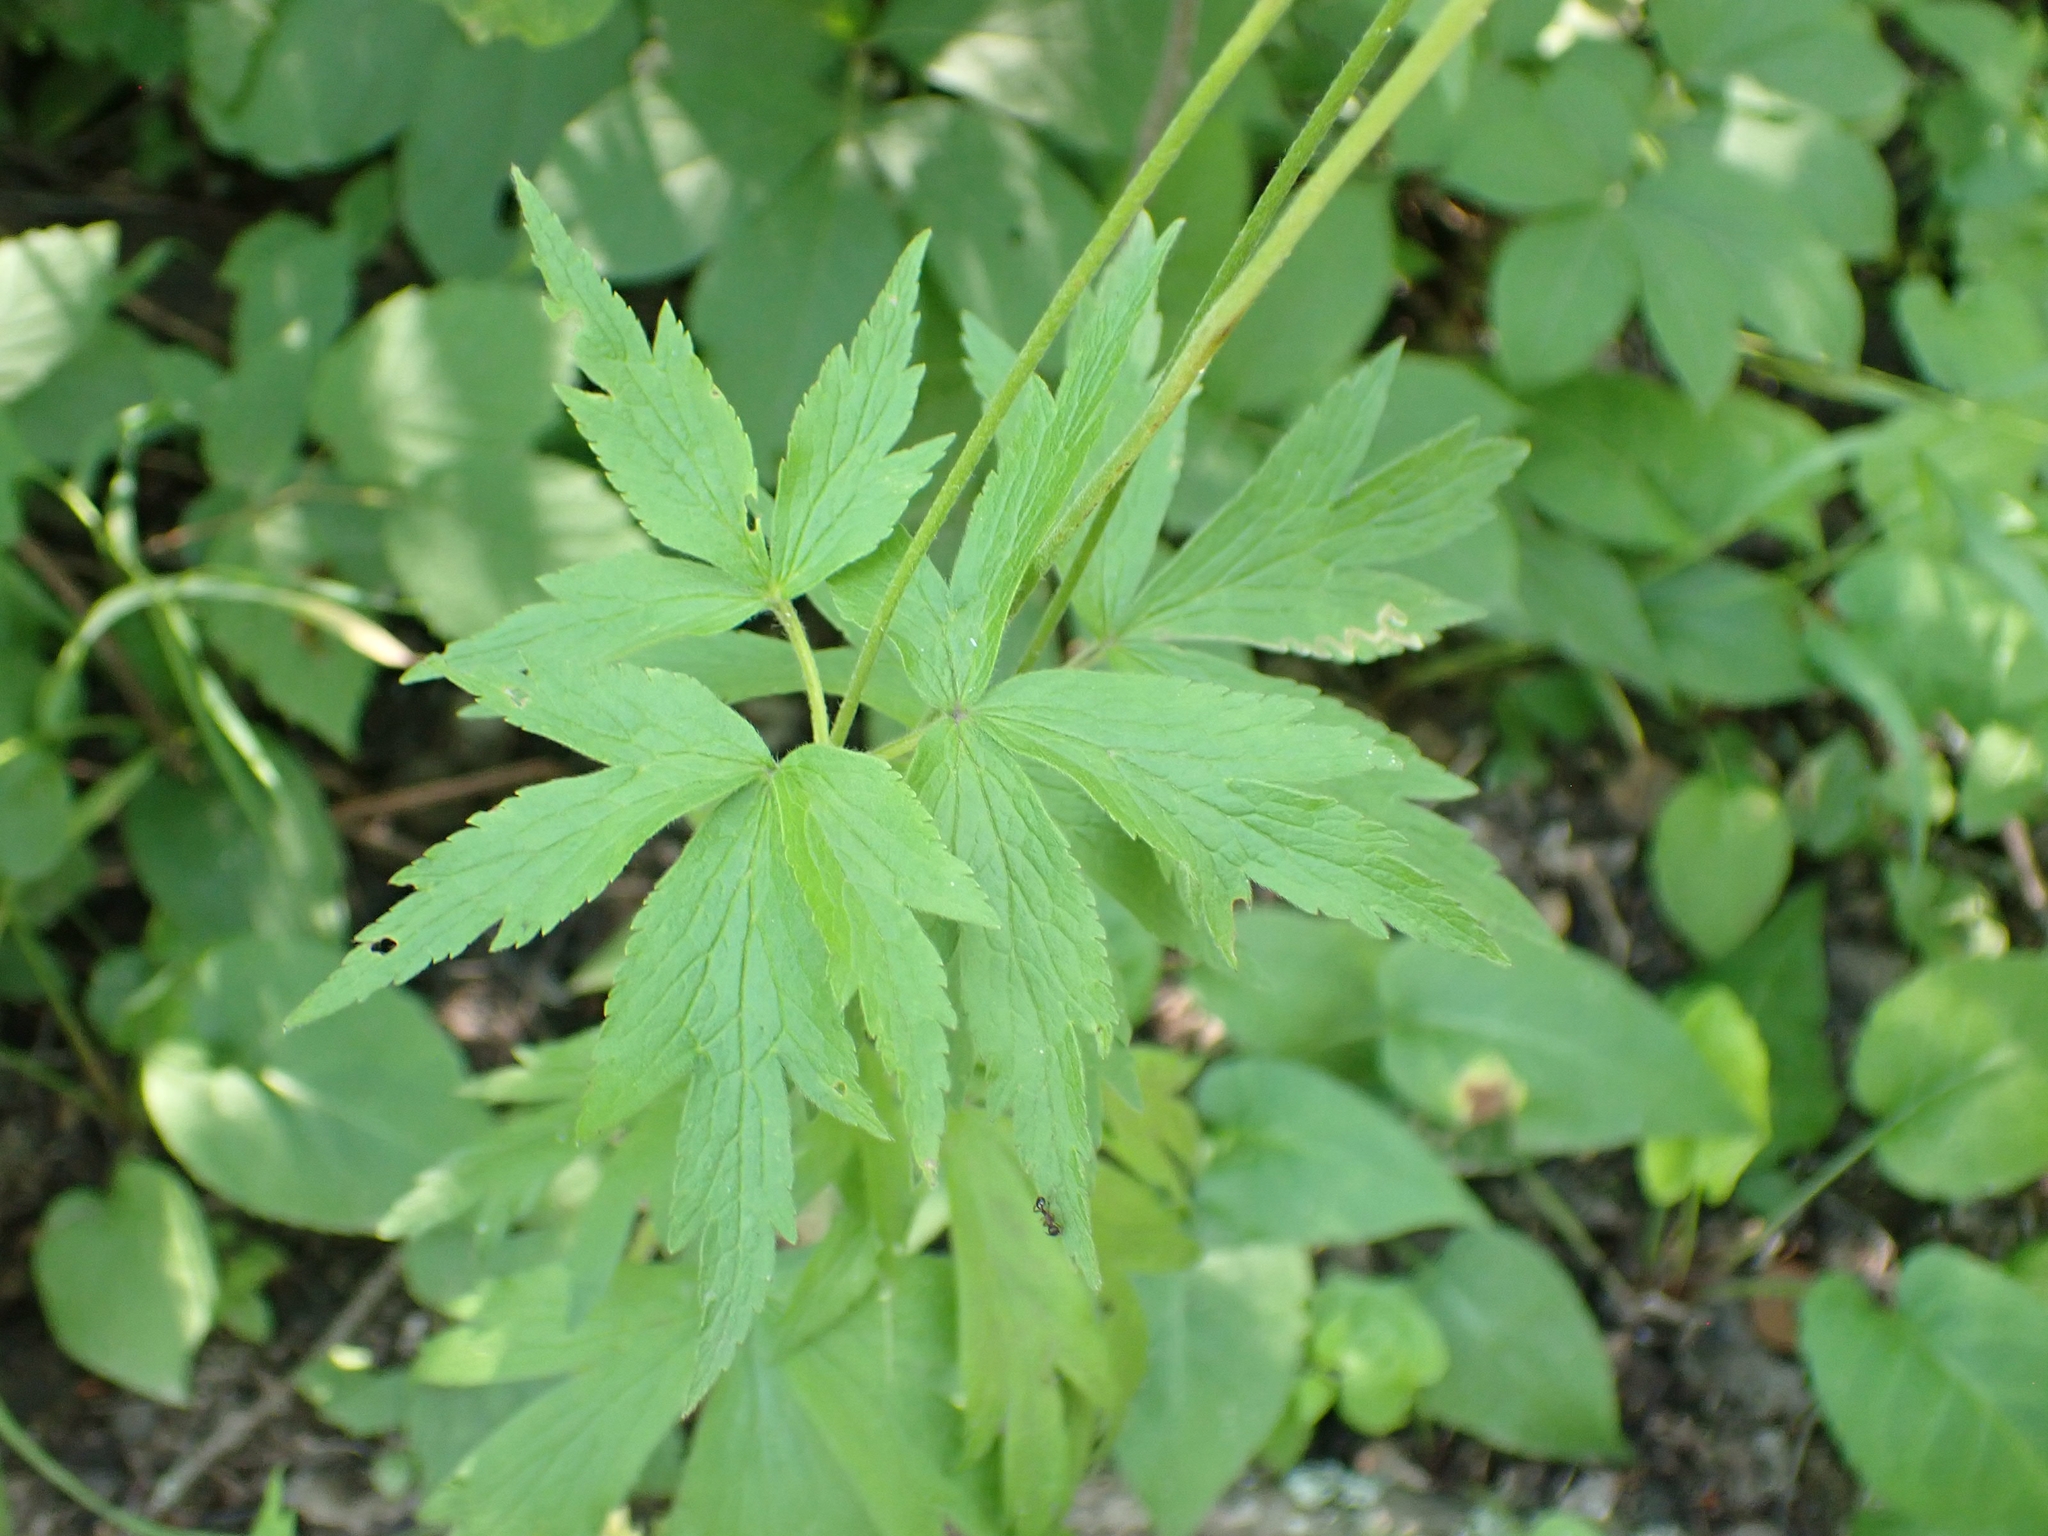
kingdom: Plantae
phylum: Tracheophyta
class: Magnoliopsida
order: Ranunculales
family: Ranunculaceae
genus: Anemone
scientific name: Anemone virginiana
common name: Tall anemone
